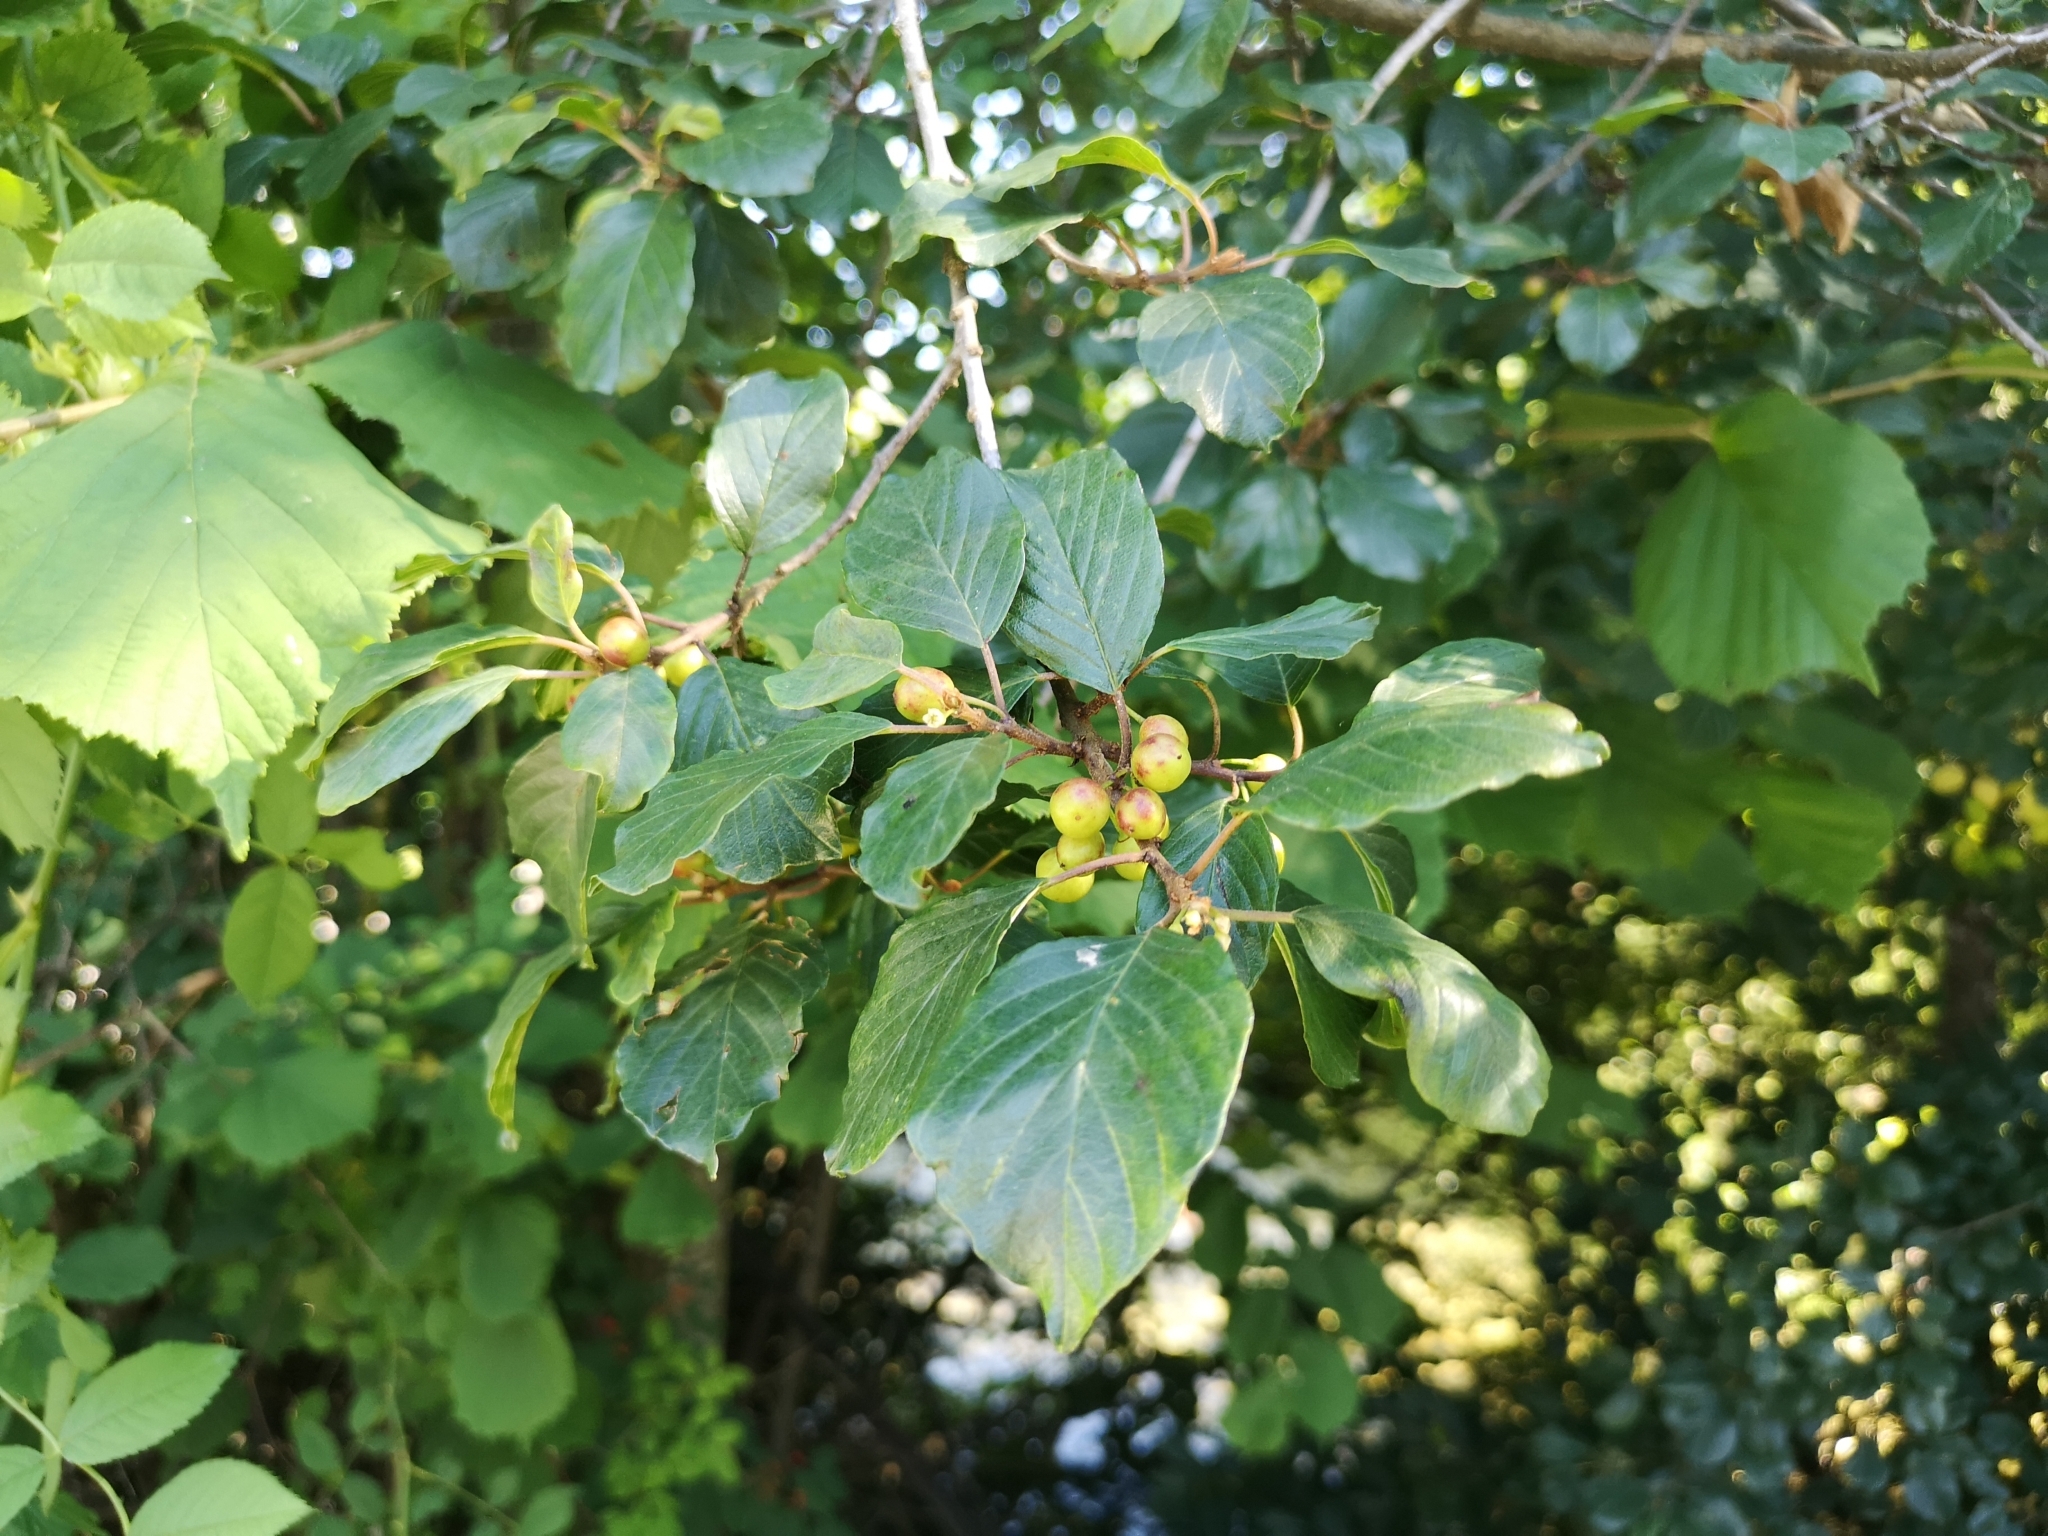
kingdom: Plantae
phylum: Tracheophyta
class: Magnoliopsida
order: Rosales
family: Rhamnaceae
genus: Frangula
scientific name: Frangula alnus
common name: Alder buckthorn
